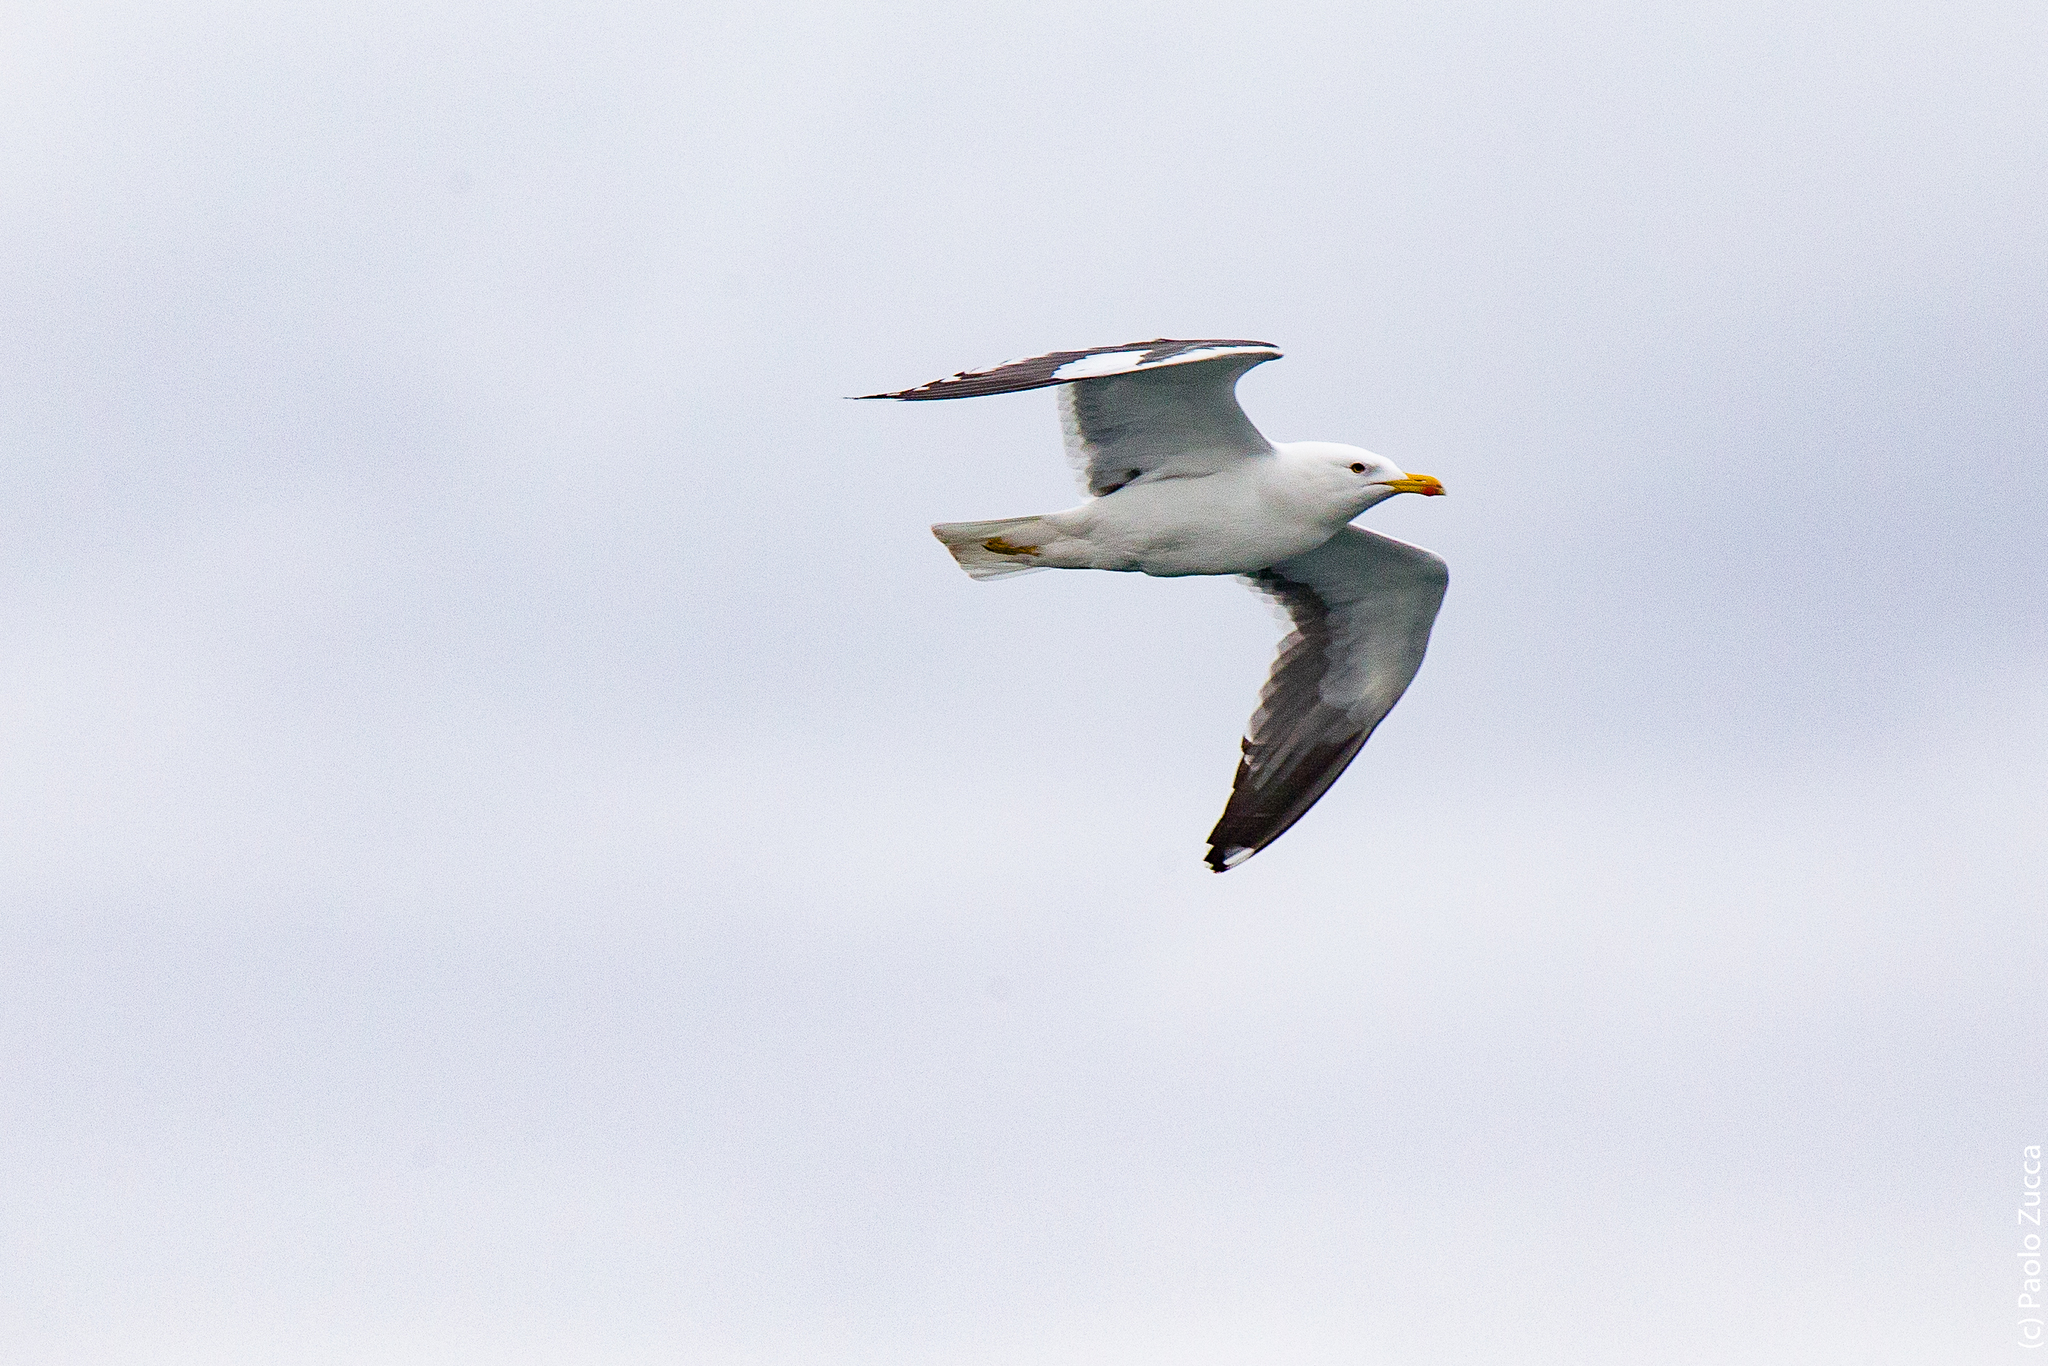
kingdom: Animalia
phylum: Chordata
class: Aves
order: Charadriiformes
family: Laridae
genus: Larus
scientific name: Larus fuscus
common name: Lesser black-backed gull
